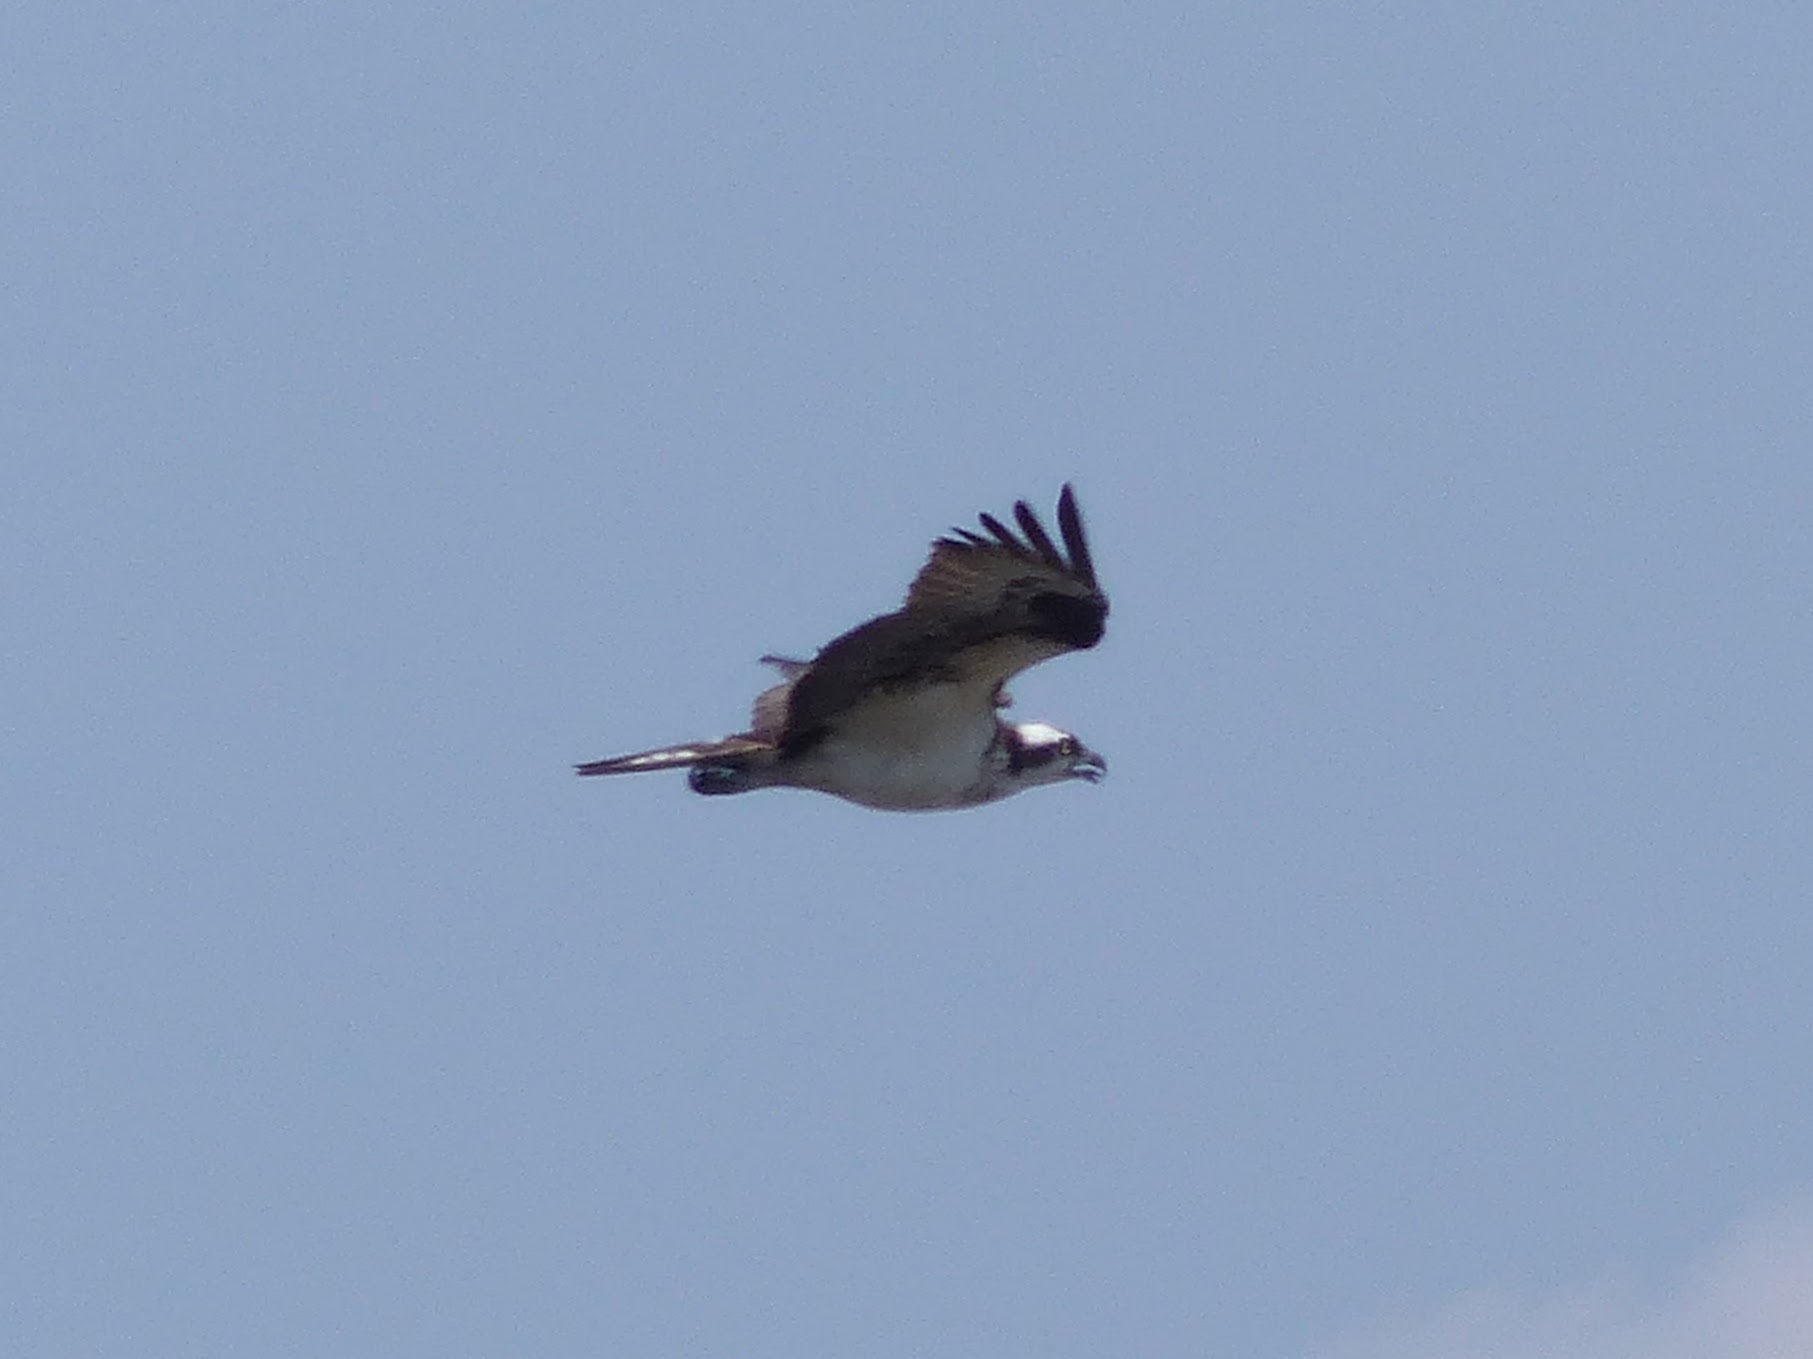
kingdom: Animalia
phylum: Chordata
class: Aves
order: Accipitriformes
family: Pandionidae
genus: Pandion
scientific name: Pandion haliaetus
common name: Osprey
